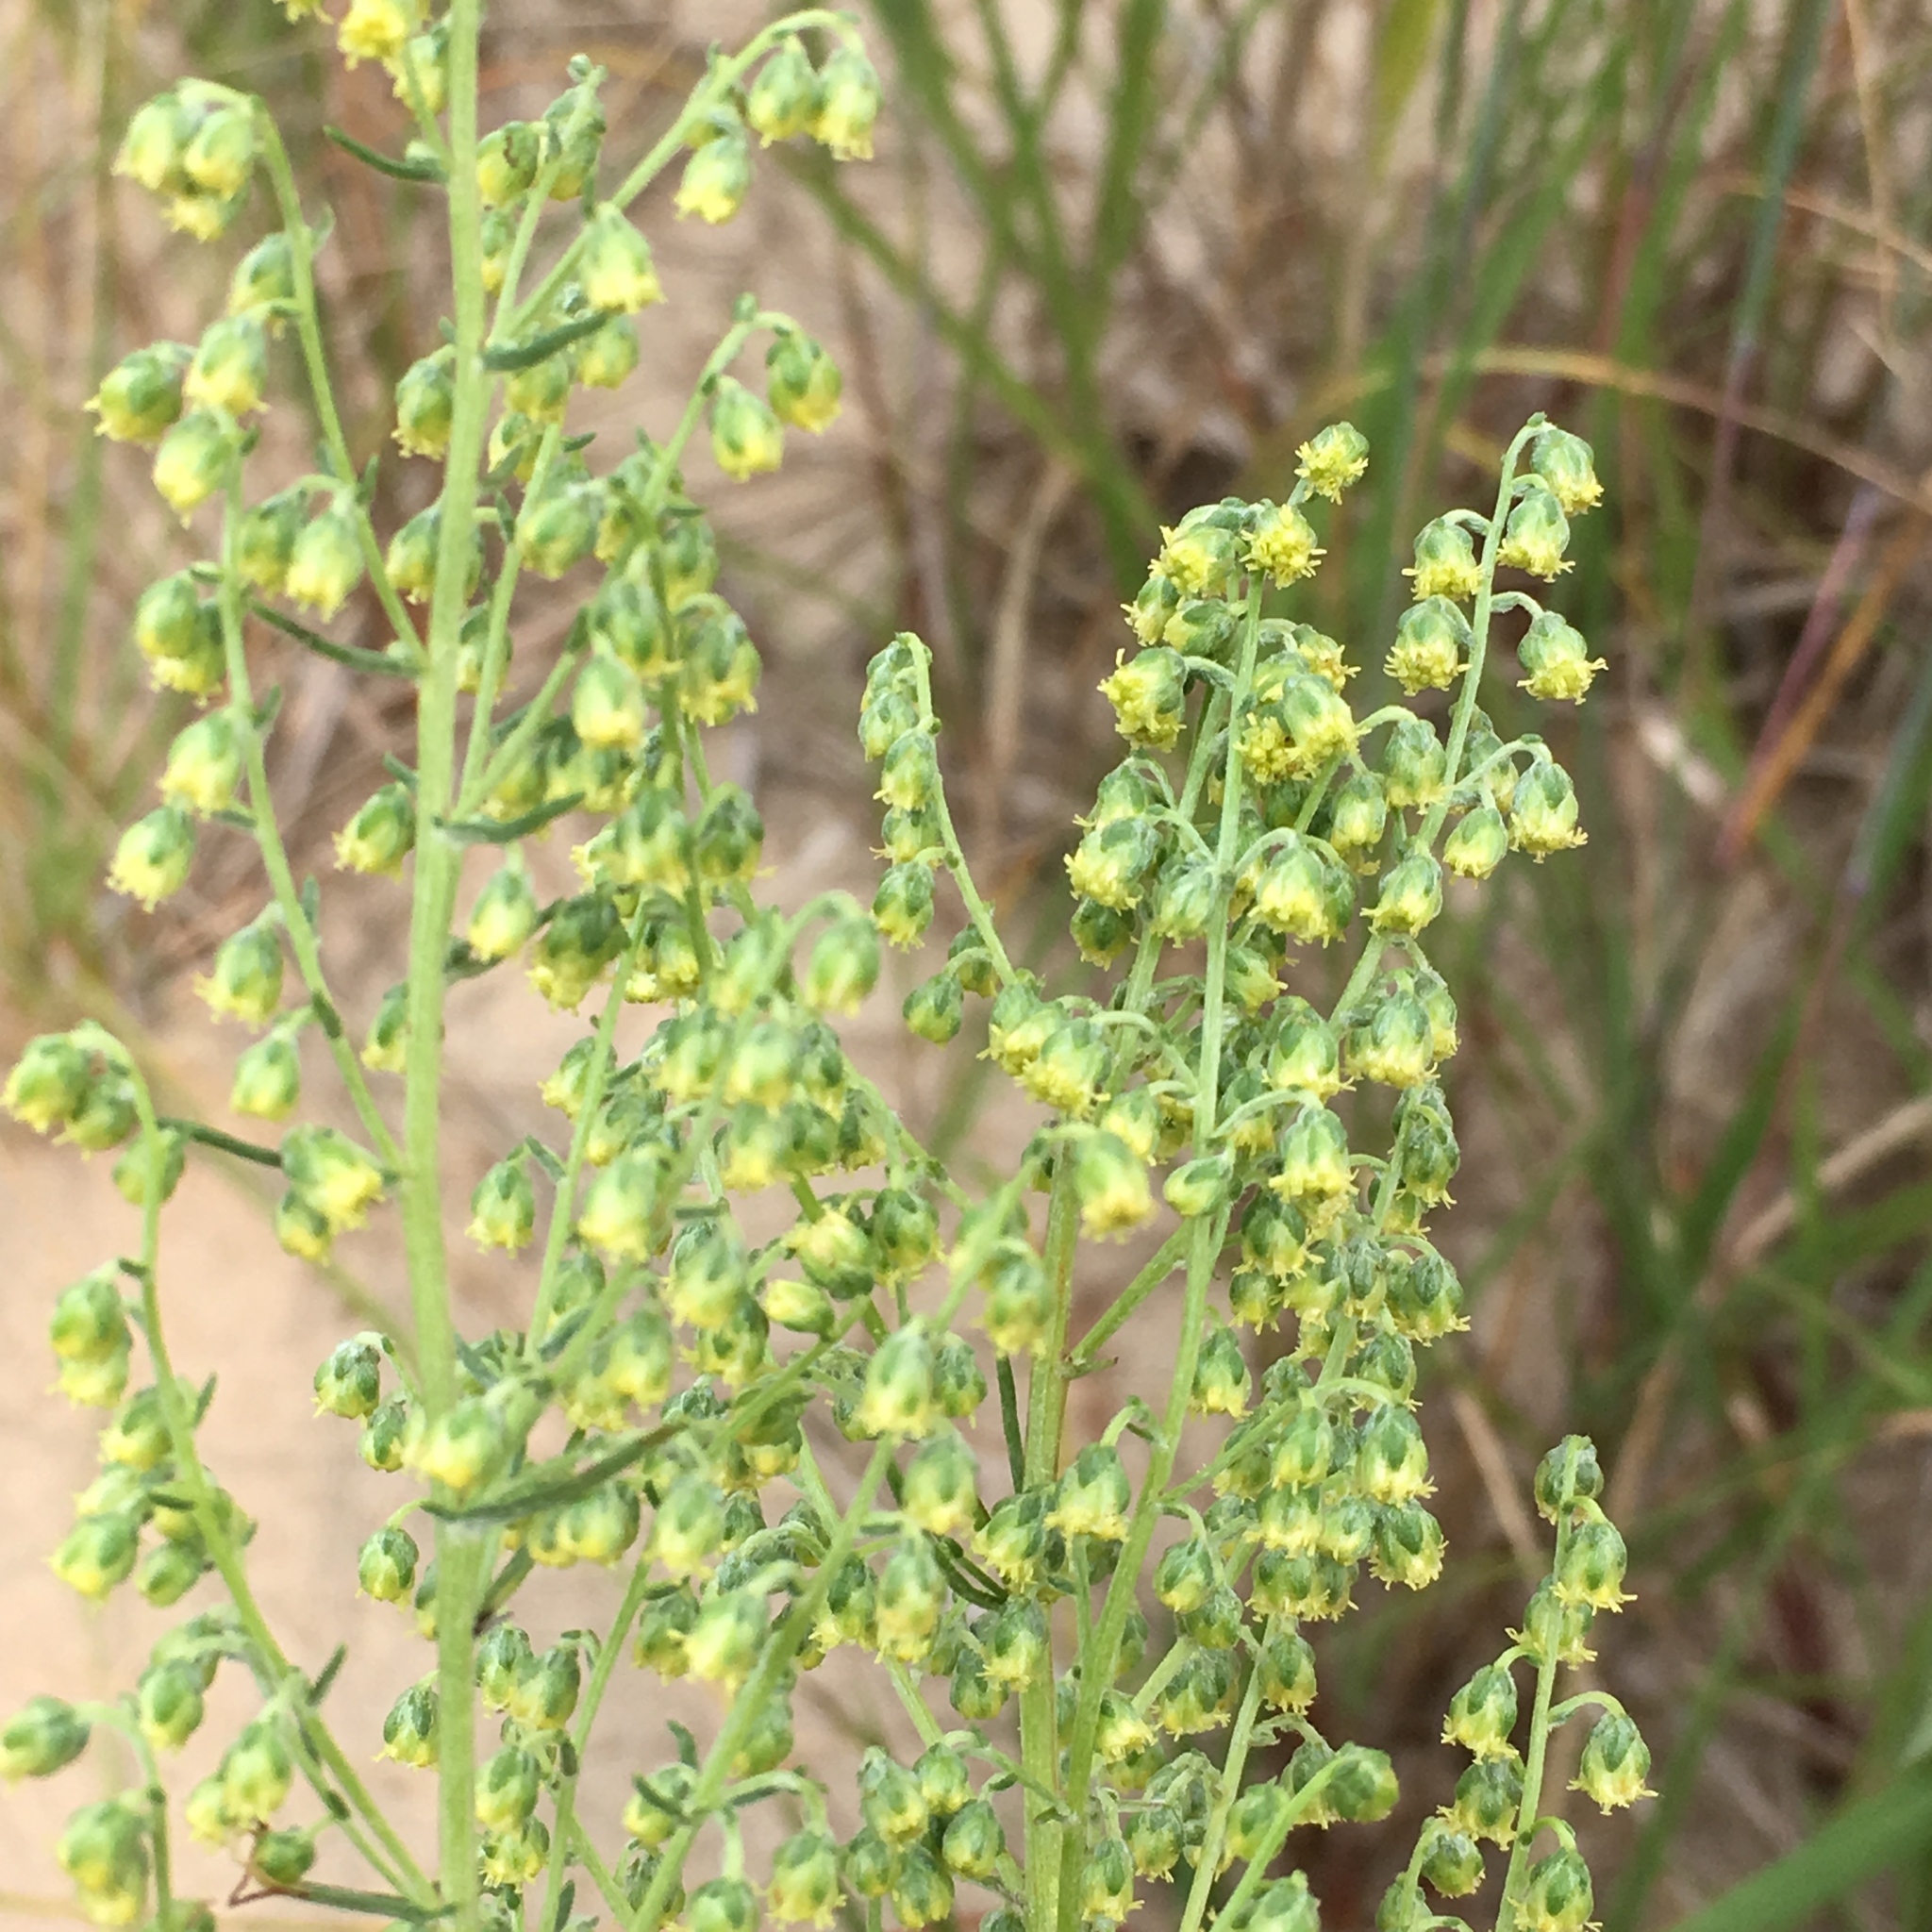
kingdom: Plantae
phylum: Tracheophyta
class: Magnoliopsida
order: Asterales
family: Asteraceae
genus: Artemisia
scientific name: Artemisia campestris
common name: Field wormwood
